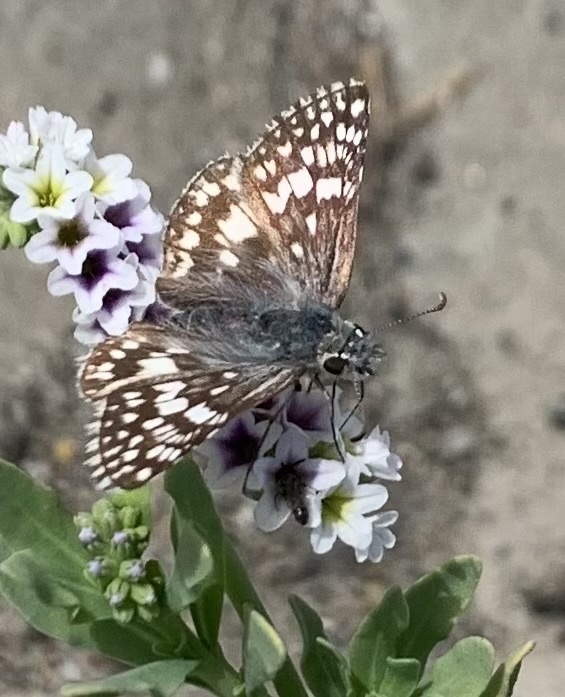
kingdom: Animalia
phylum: Arthropoda
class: Insecta
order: Lepidoptera
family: Hesperiidae
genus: Burnsius
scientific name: Burnsius communis
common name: Common checkered-skipper
